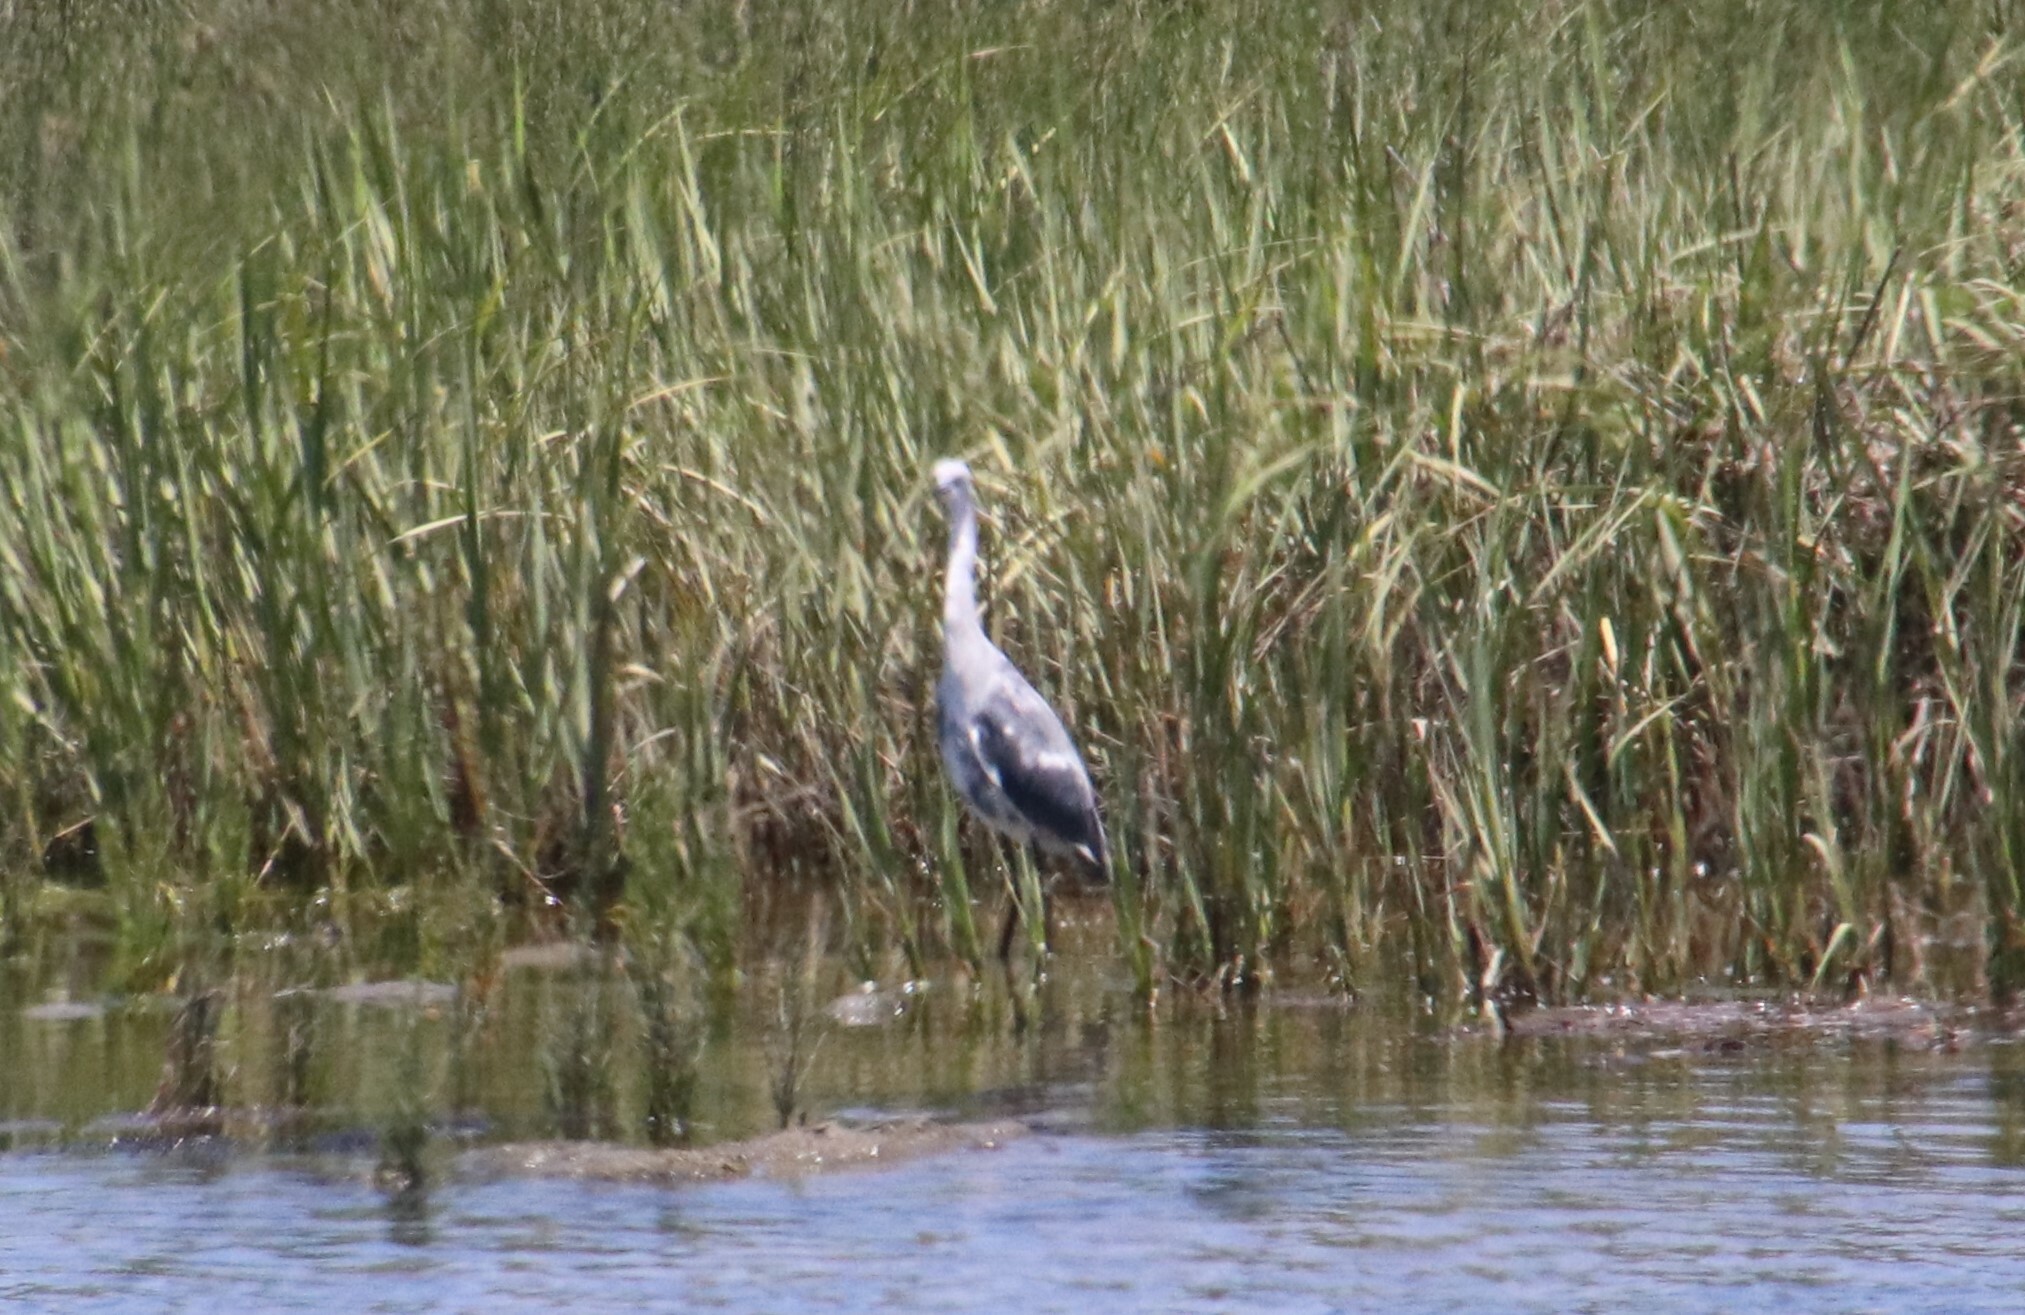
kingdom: Animalia
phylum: Chordata
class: Aves
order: Pelecaniformes
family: Ardeidae
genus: Egretta
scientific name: Egretta caerulea
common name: Little blue heron
